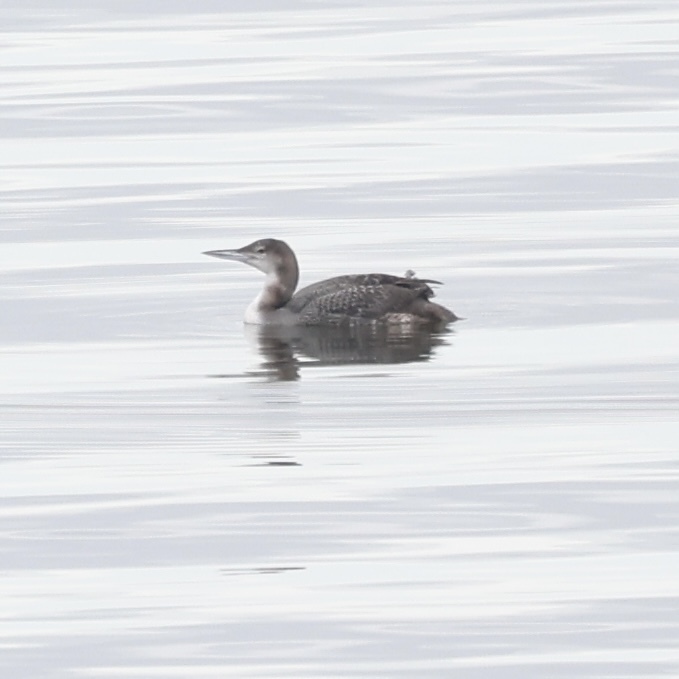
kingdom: Animalia
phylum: Chordata
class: Aves
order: Gaviiformes
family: Gaviidae
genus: Gavia
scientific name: Gavia immer
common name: Common loon
